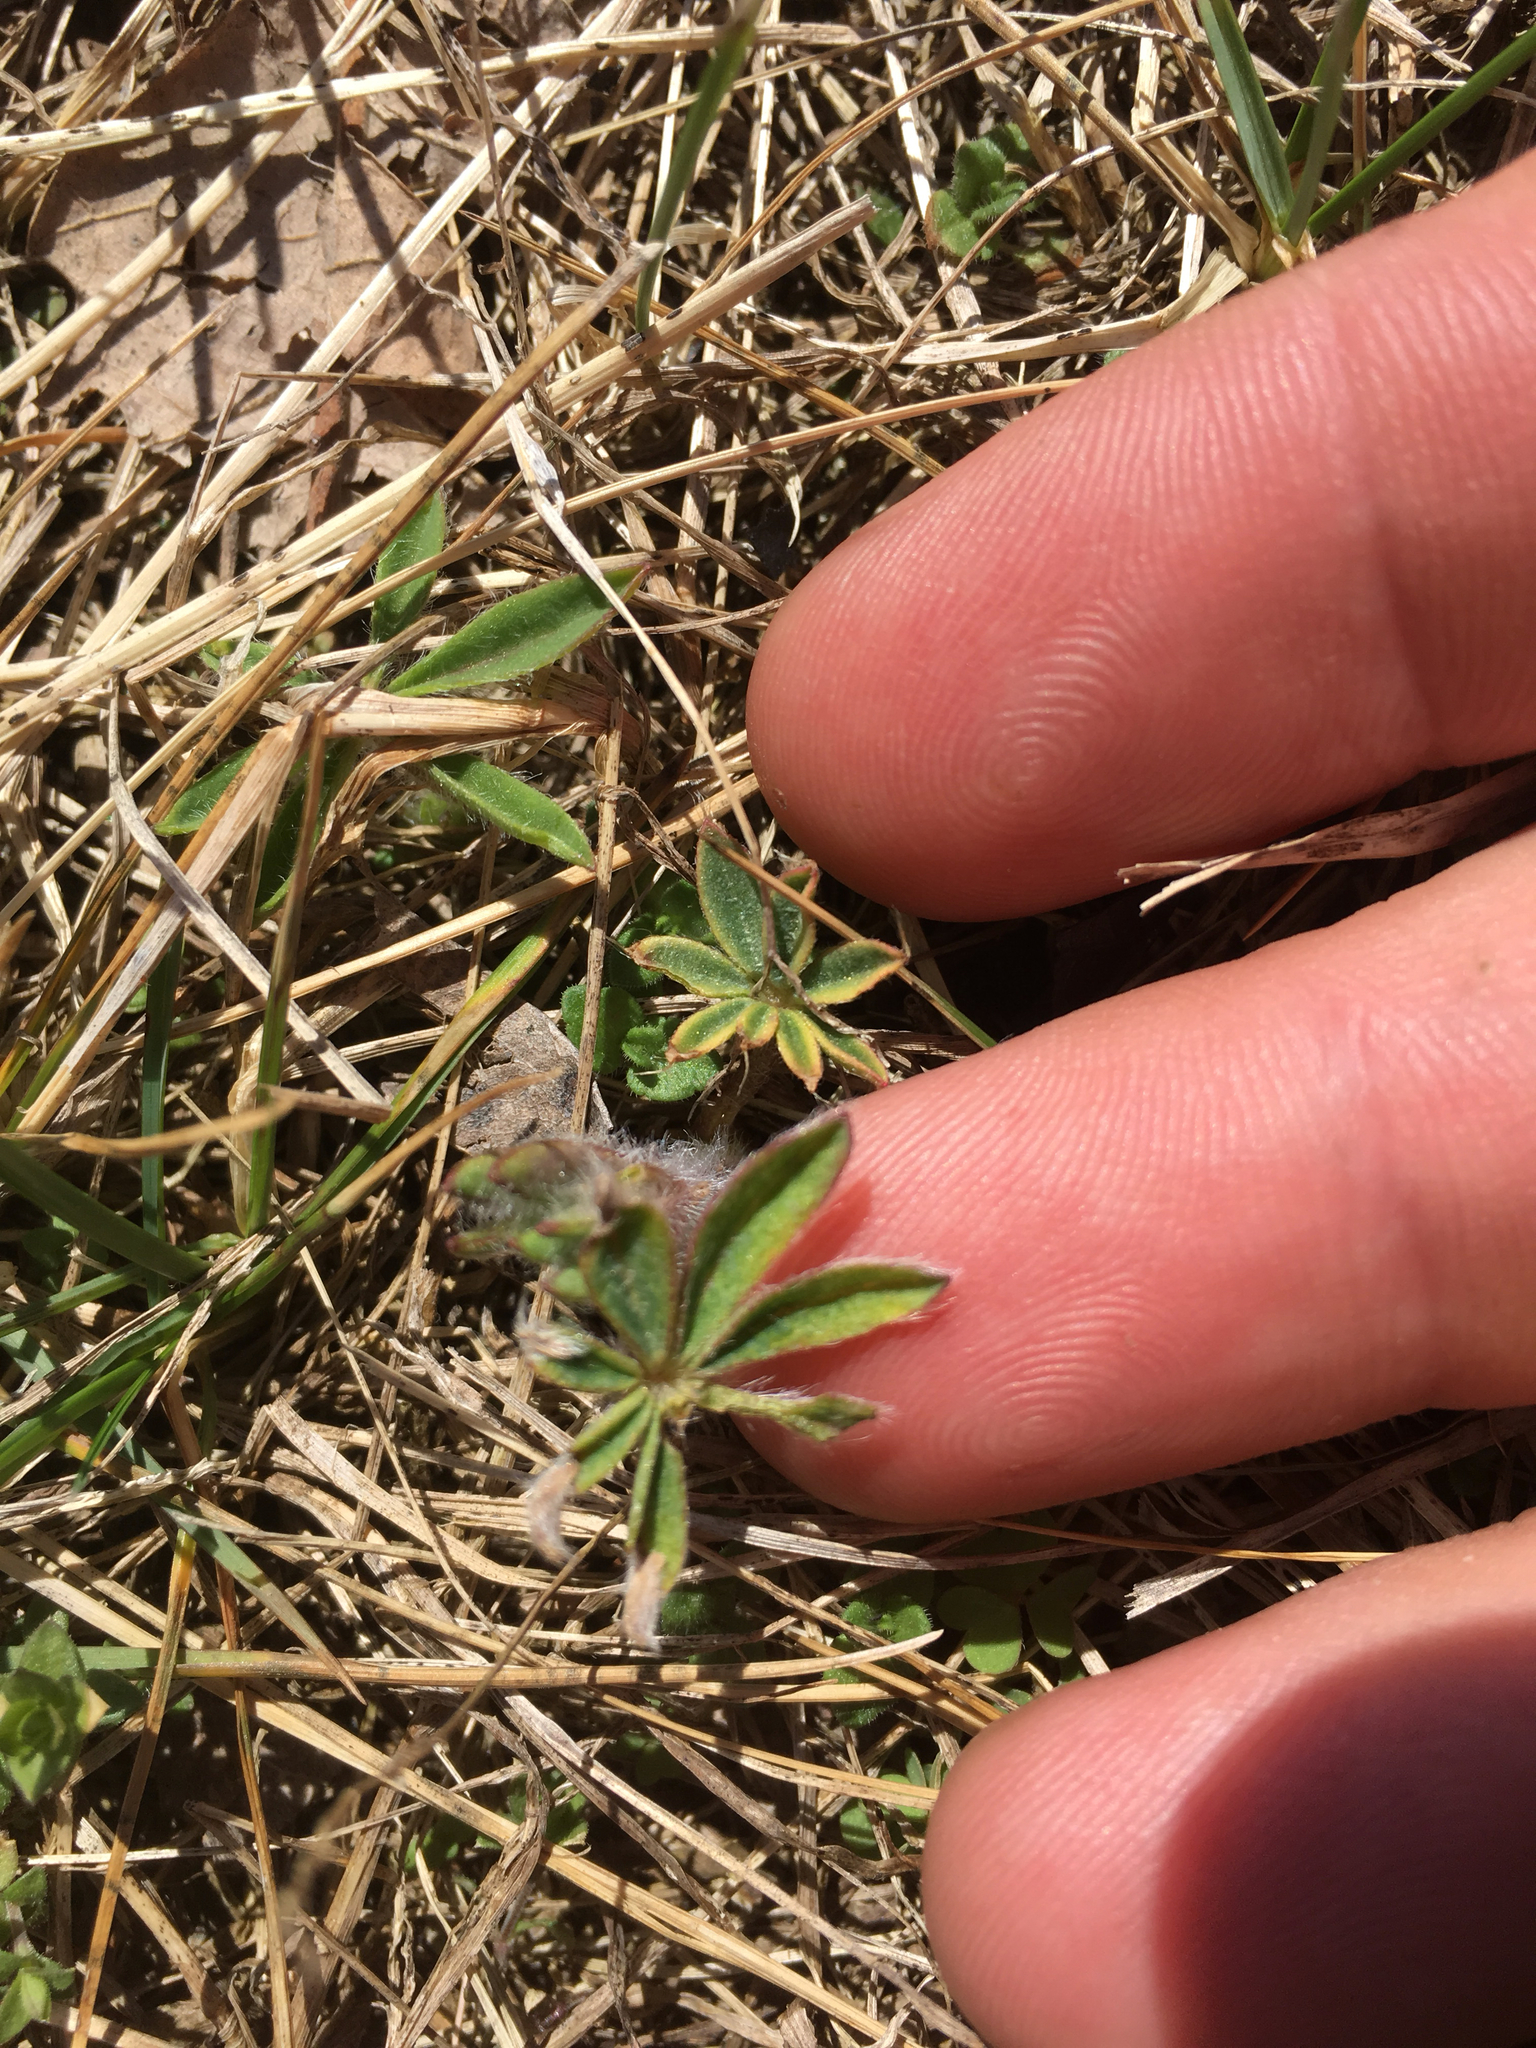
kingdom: Plantae
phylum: Tracheophyta
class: Magnoliopsida
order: Fabales
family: Fabaceae
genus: Lupinus
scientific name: Lupinus perennis
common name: Sundial lupine
